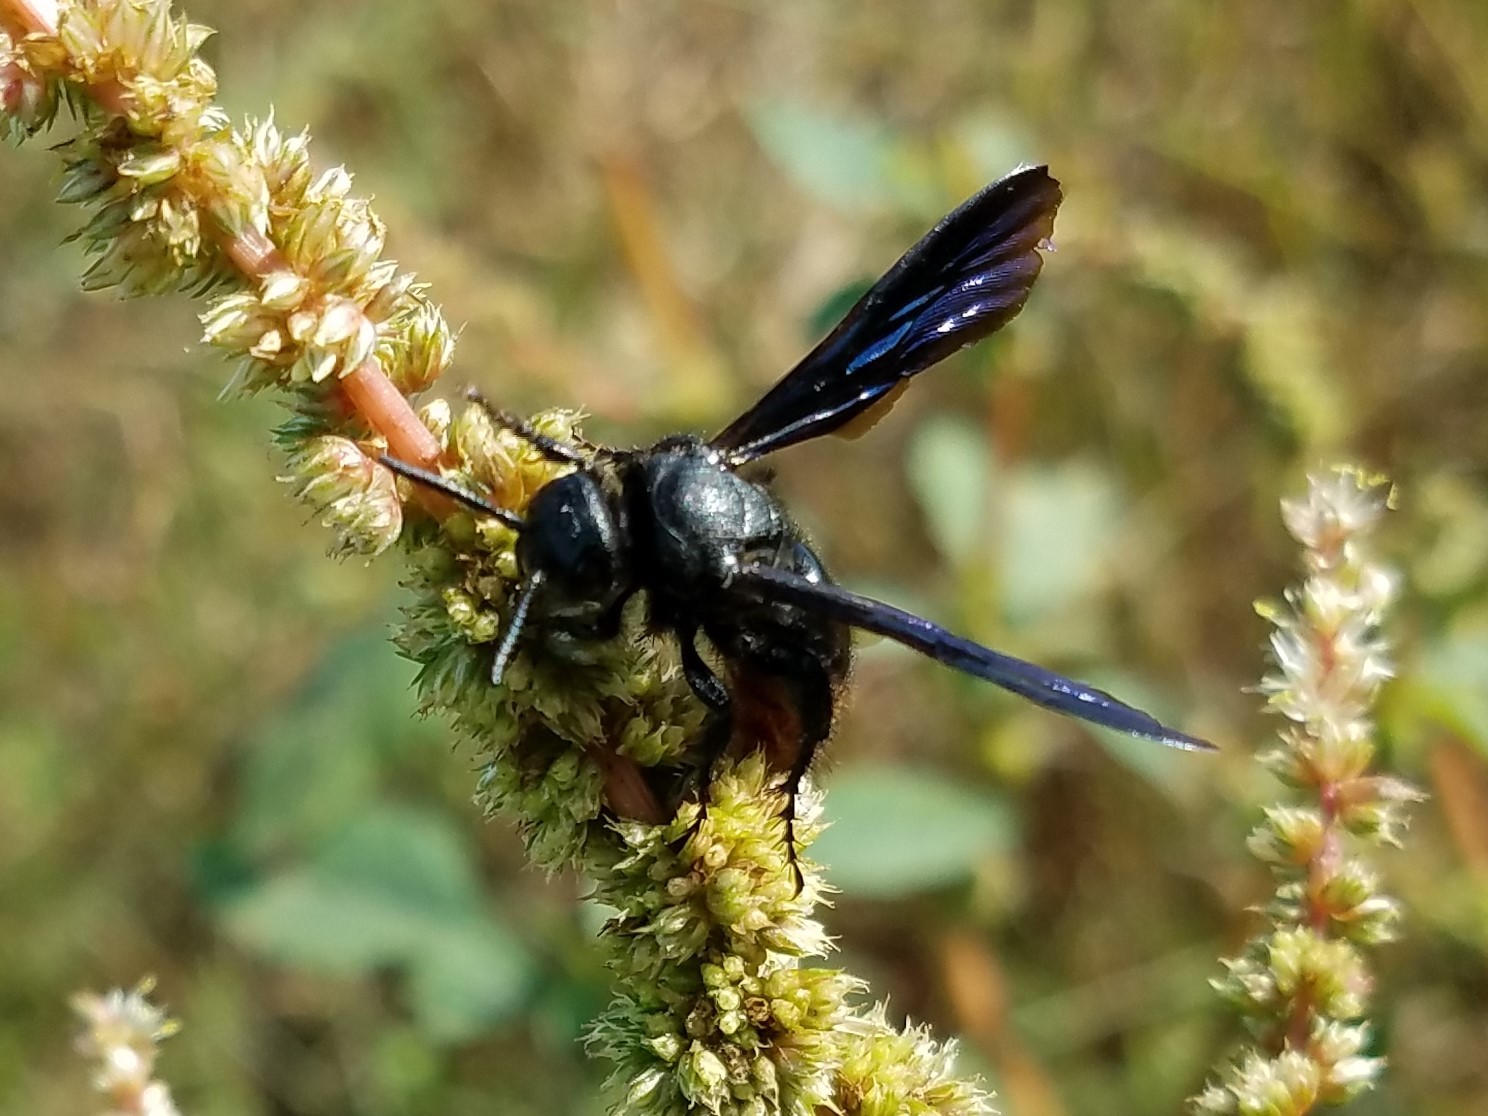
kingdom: Animalia
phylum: Arthropoda
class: Insecta
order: Hymenoptera
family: Scoliidae
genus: Scolia
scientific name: Scolia dubia
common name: Blue-winged scoliid wasp
